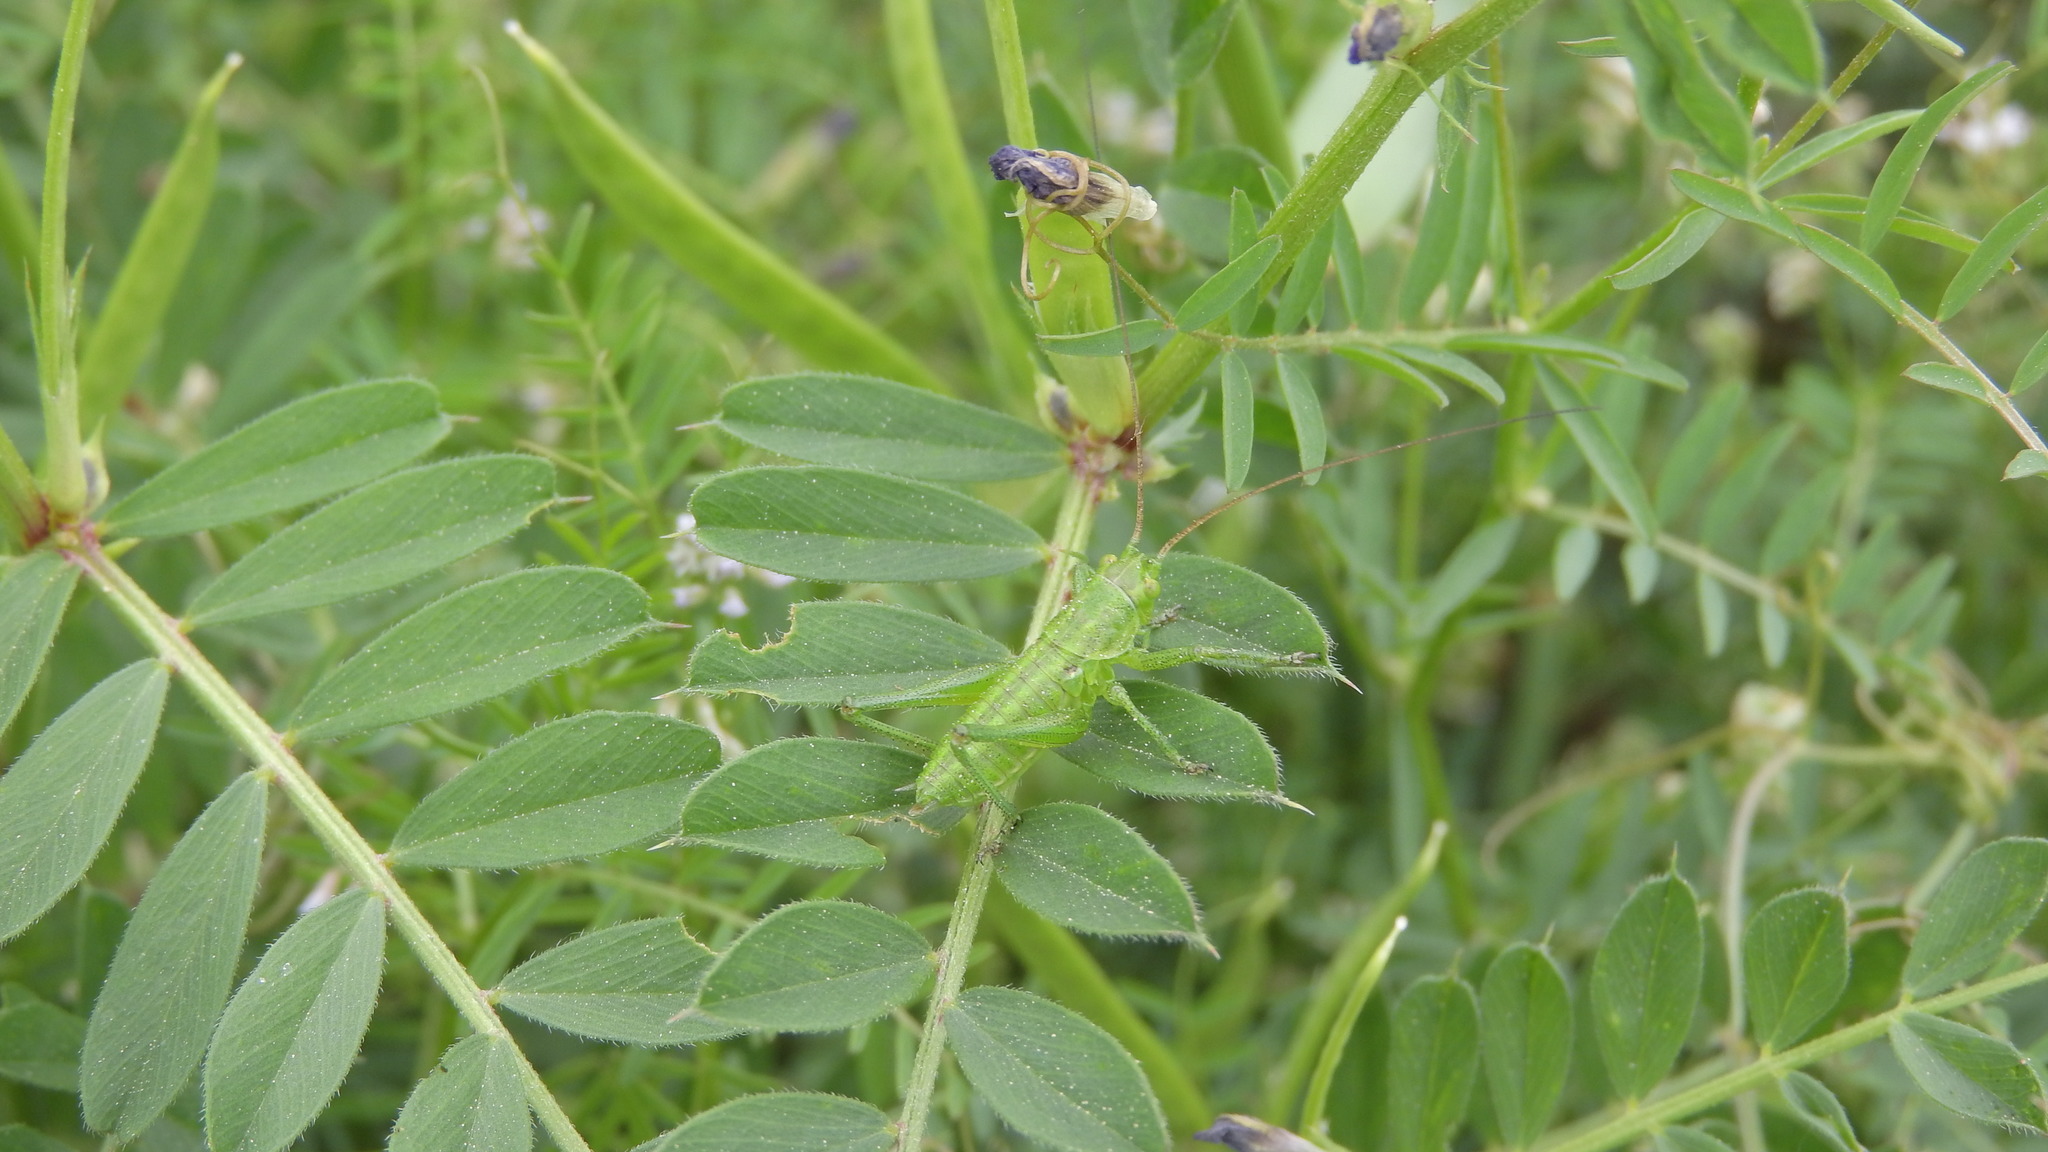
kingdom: Animalia
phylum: Arthropoda
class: Insecta
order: Orthoptera
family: Tettigoniidae
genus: Tettigonia
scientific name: Tettigonia viridissima
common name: Great green bush-cricket
